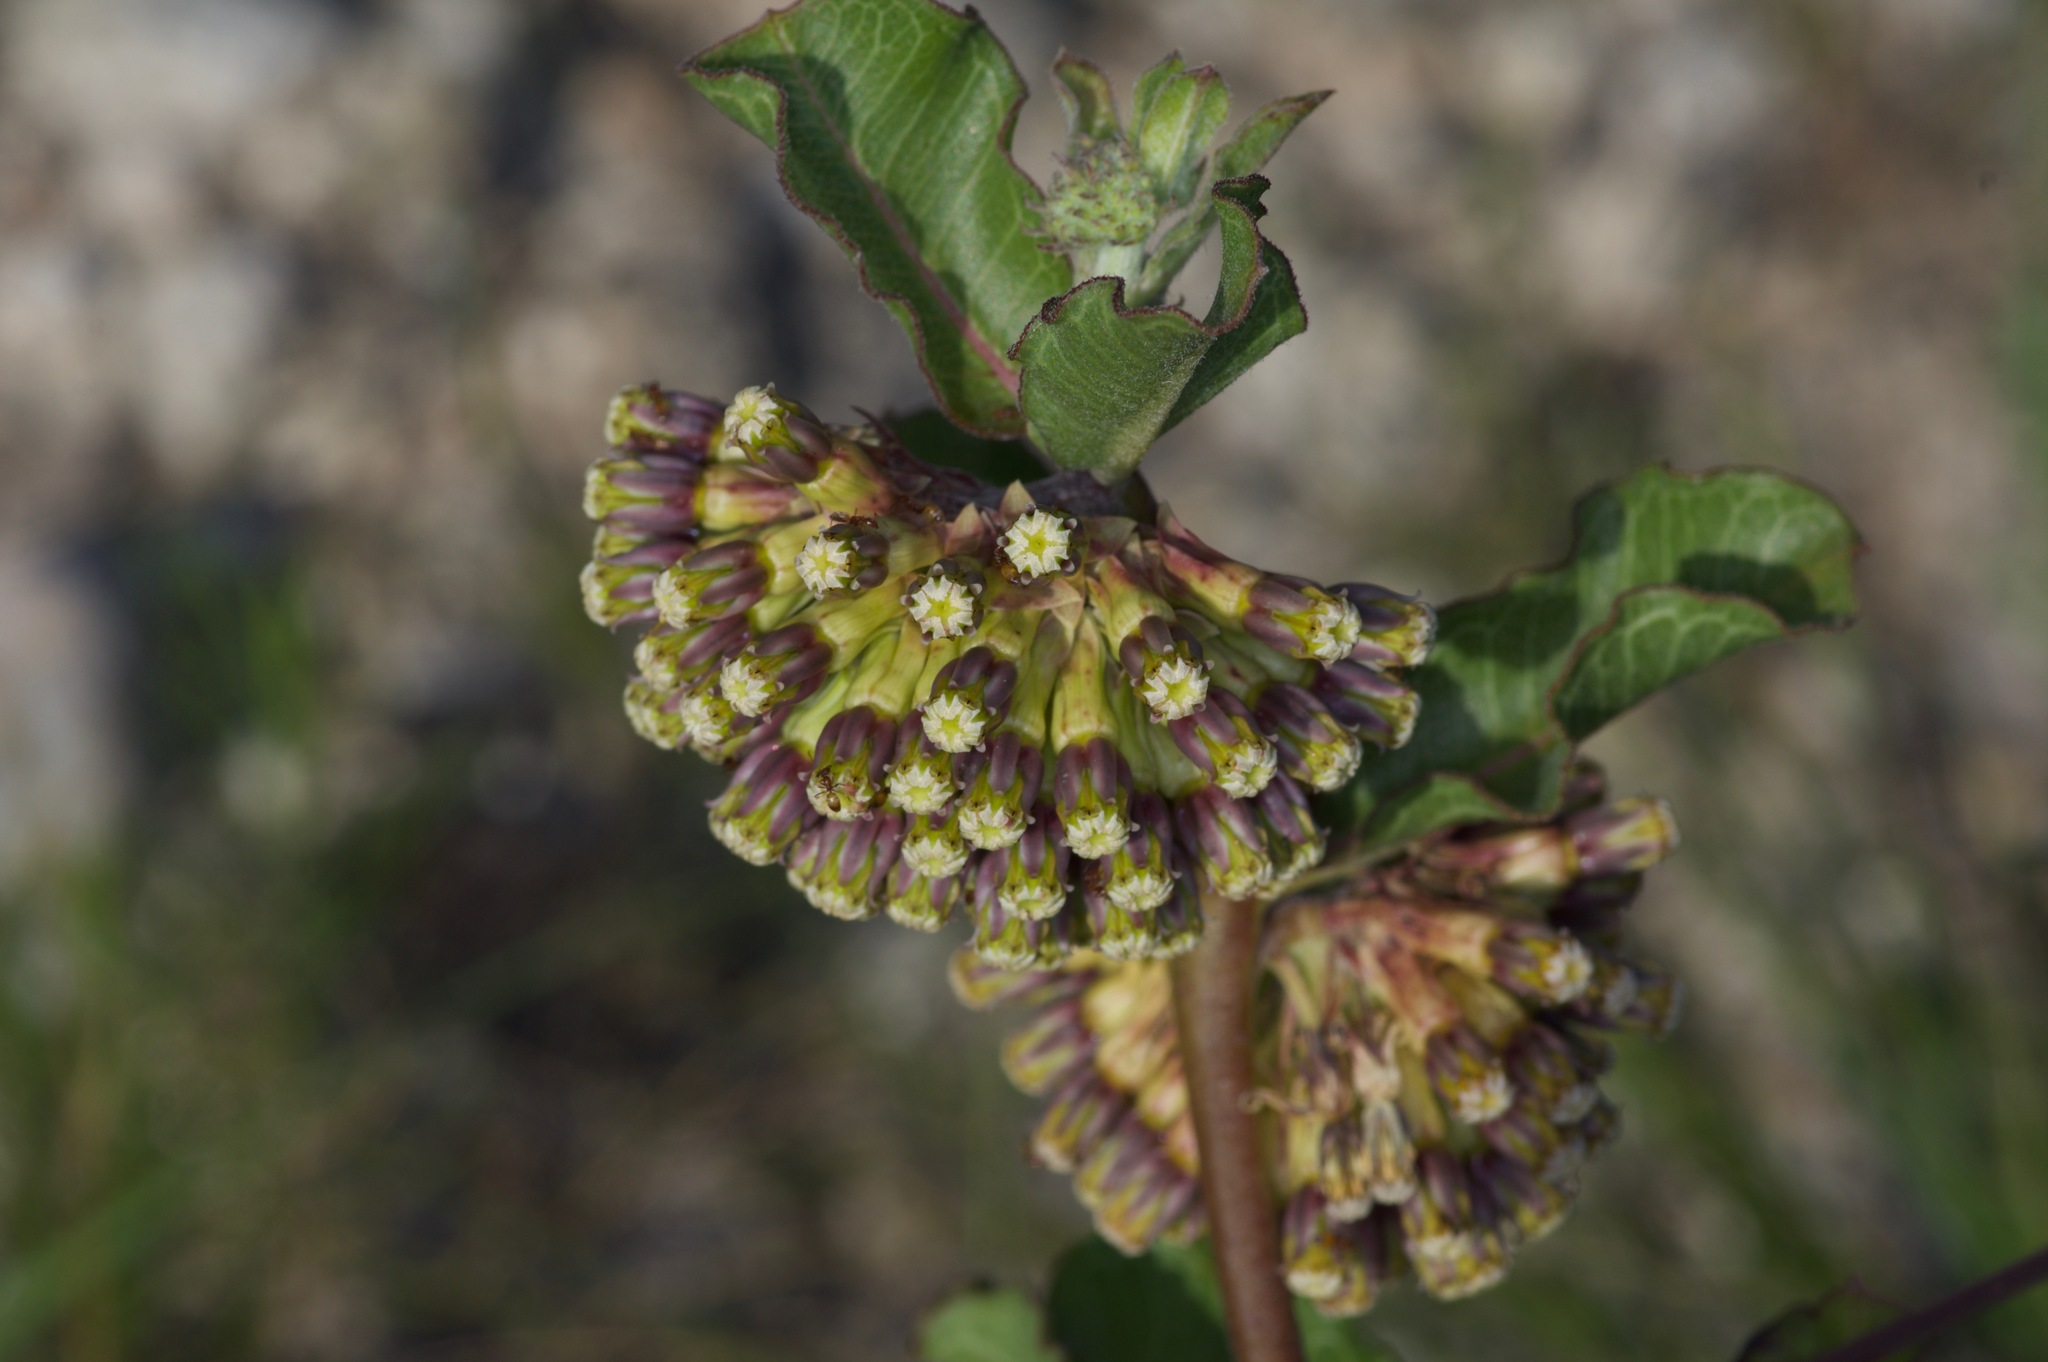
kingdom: Plantae
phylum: Tracheophyta
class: Magnoliopsida
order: Gentianales
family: Apocynaceae
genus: Asclepias
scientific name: Asclepias viridiflora
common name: Green comet milkweed
